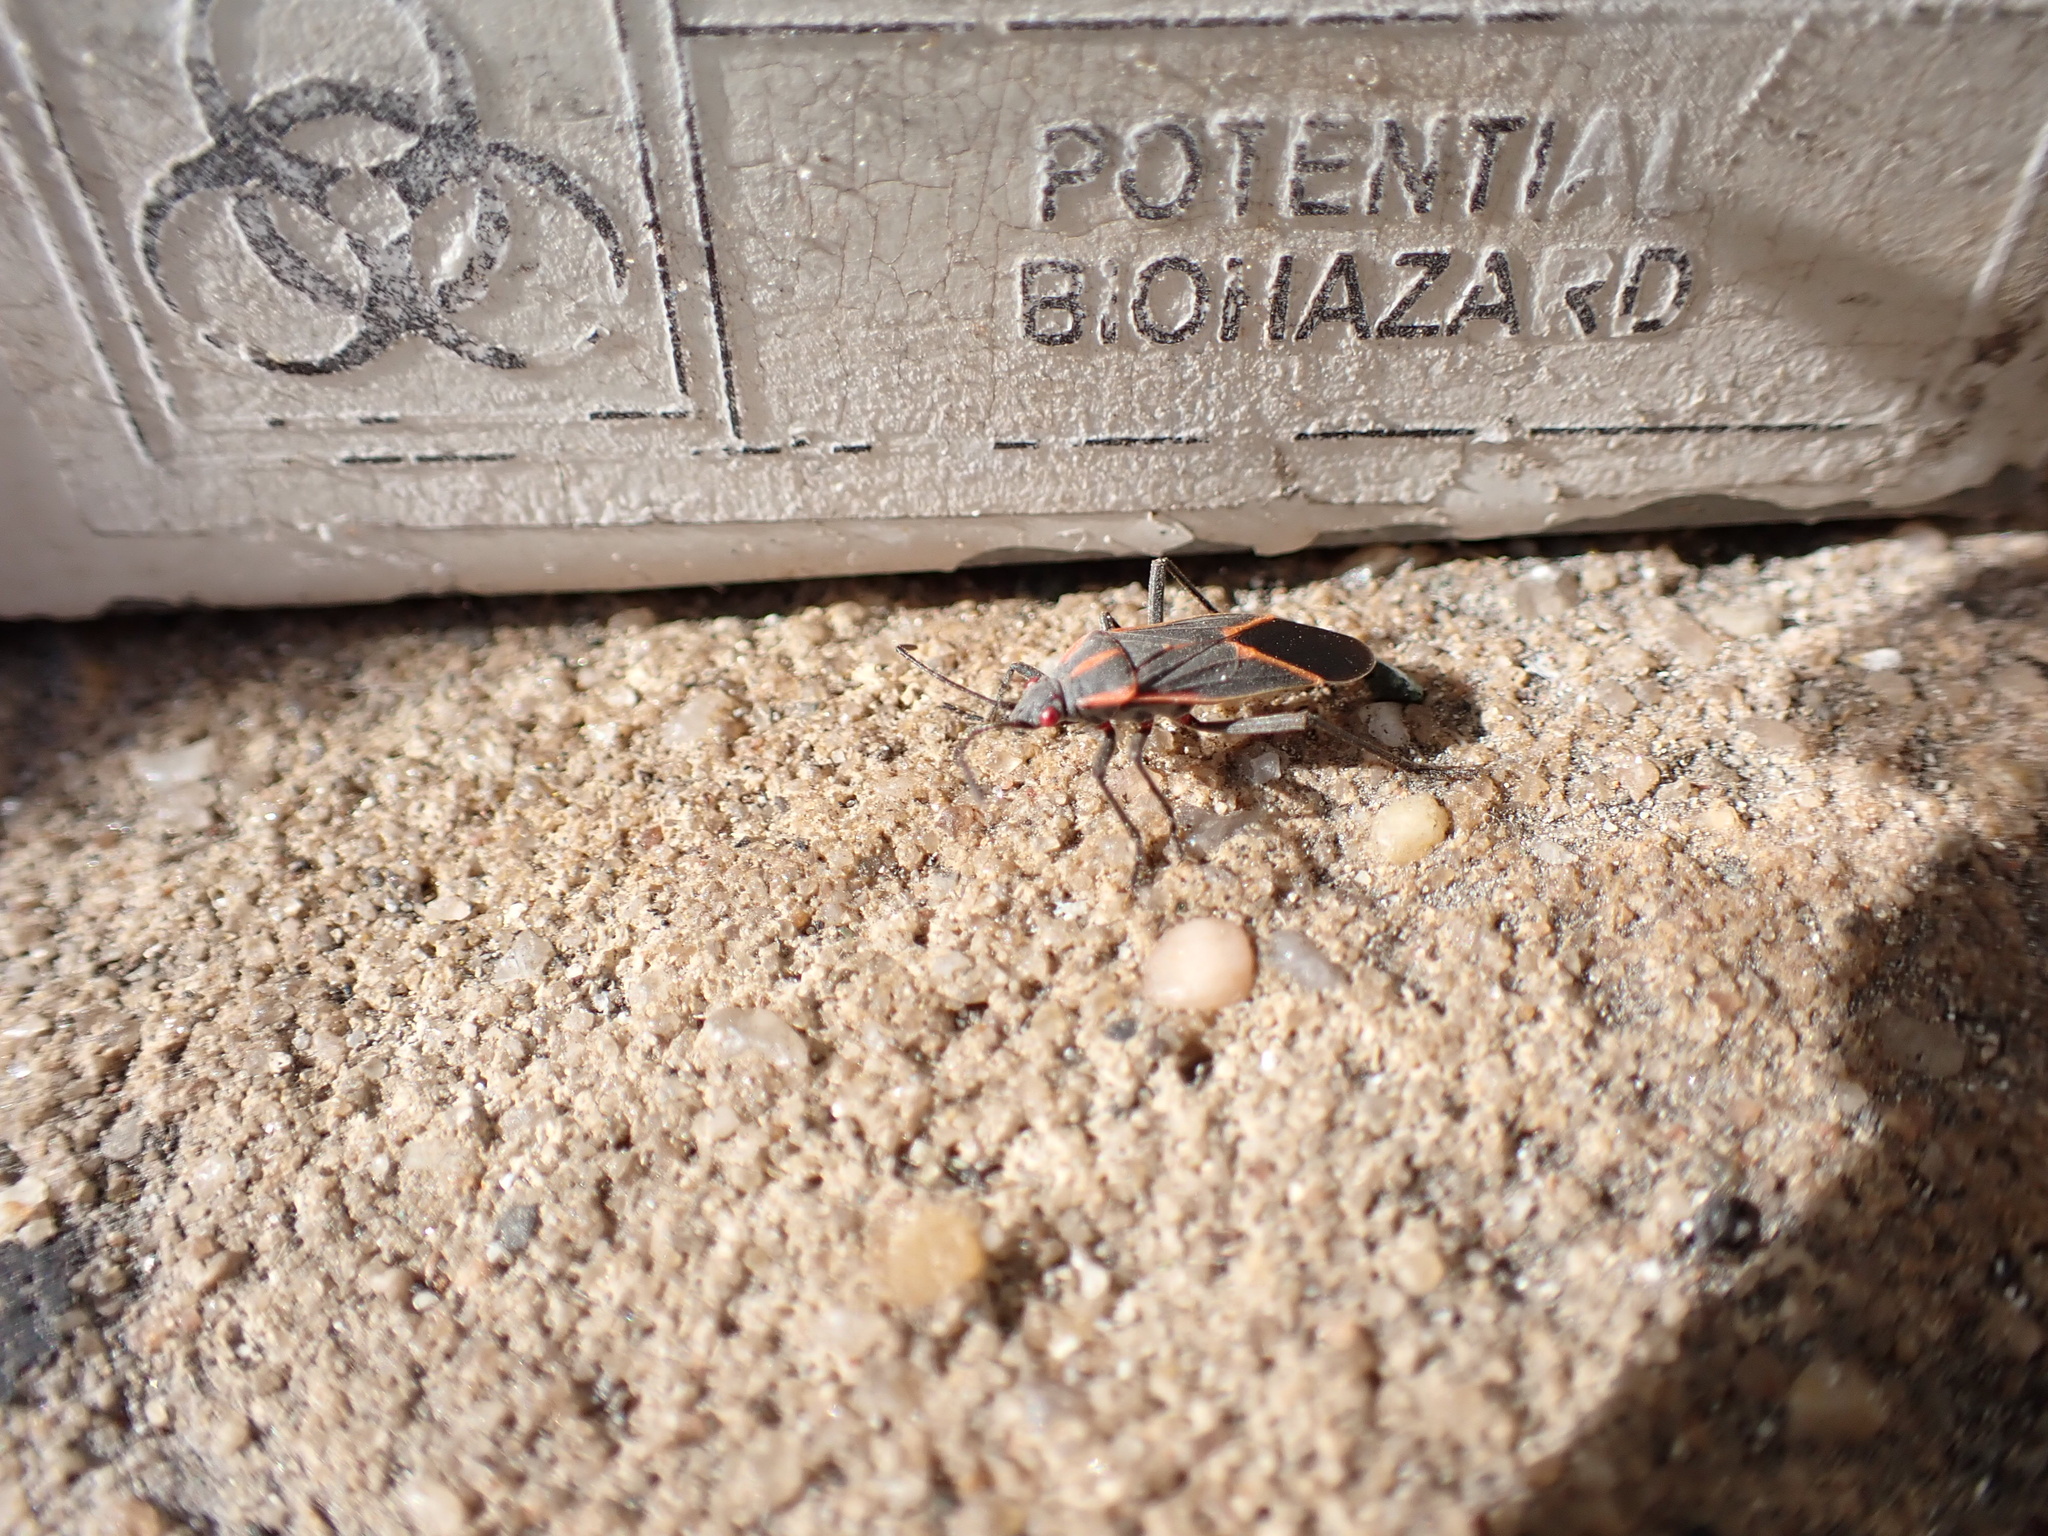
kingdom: Animalia
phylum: Arthropoda
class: Insecta
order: Hemiptera
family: Rhopalidae
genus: Boisea
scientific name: Boisea trivittata
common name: Boxelder bug
